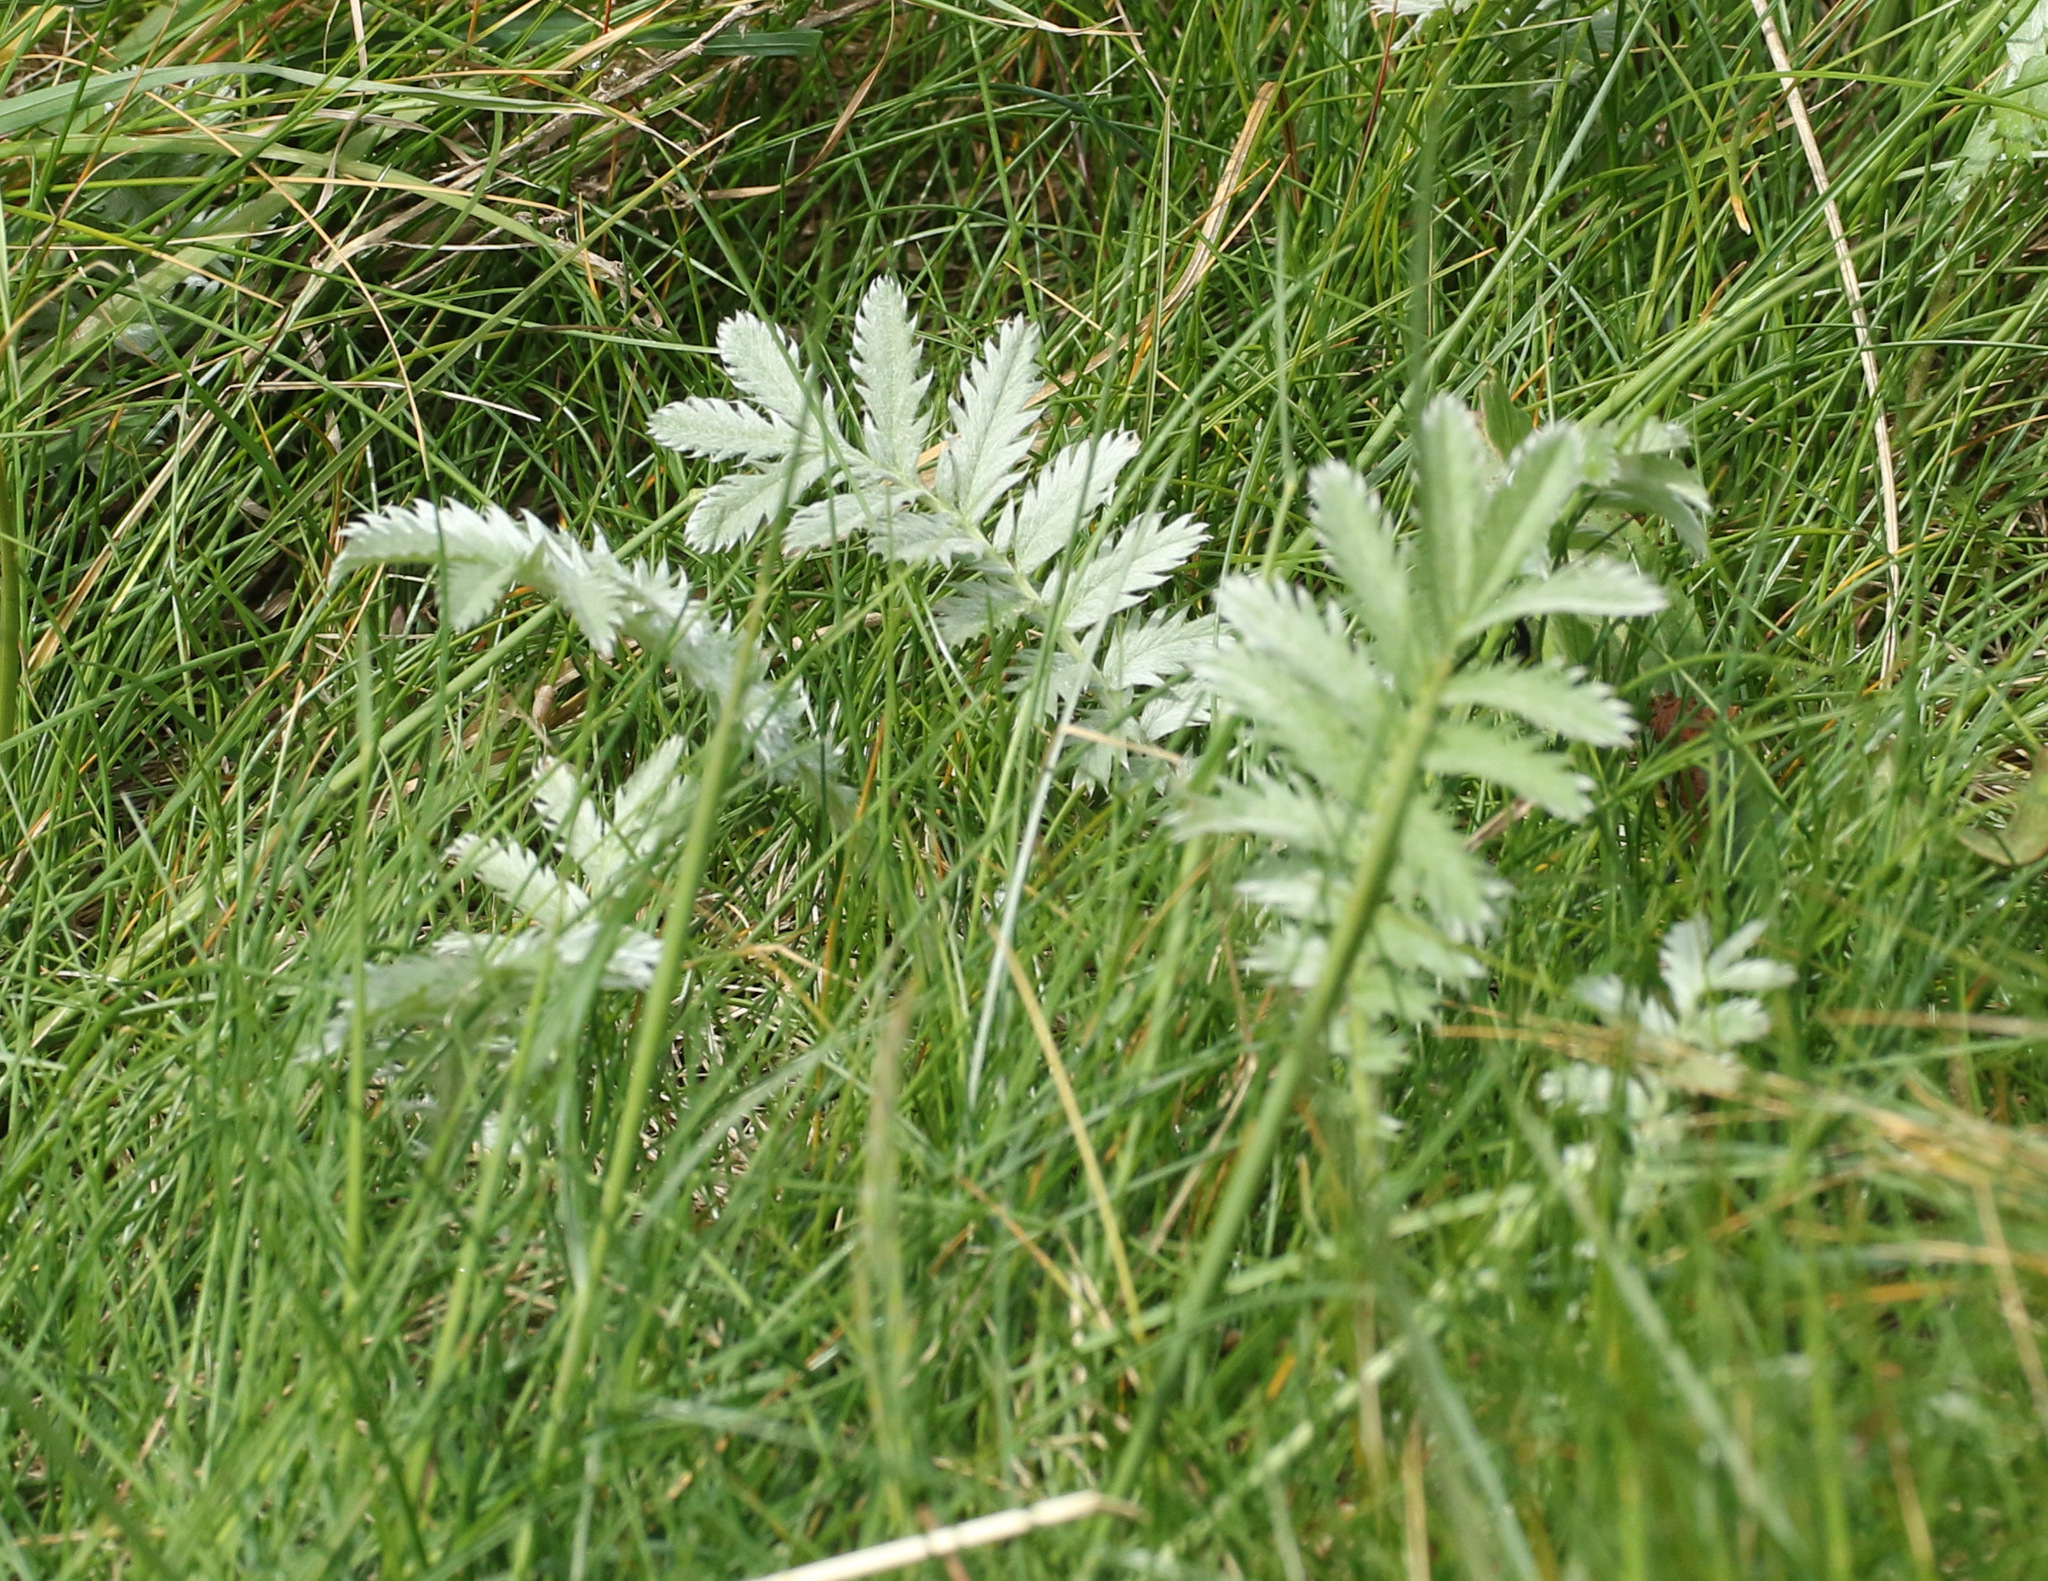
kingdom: Plantae
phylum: Tracheophyta
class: Magnoliopsida
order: Rosales
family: Rosaceae
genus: Argentina
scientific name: Argentina anserina
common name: Common silverweed
